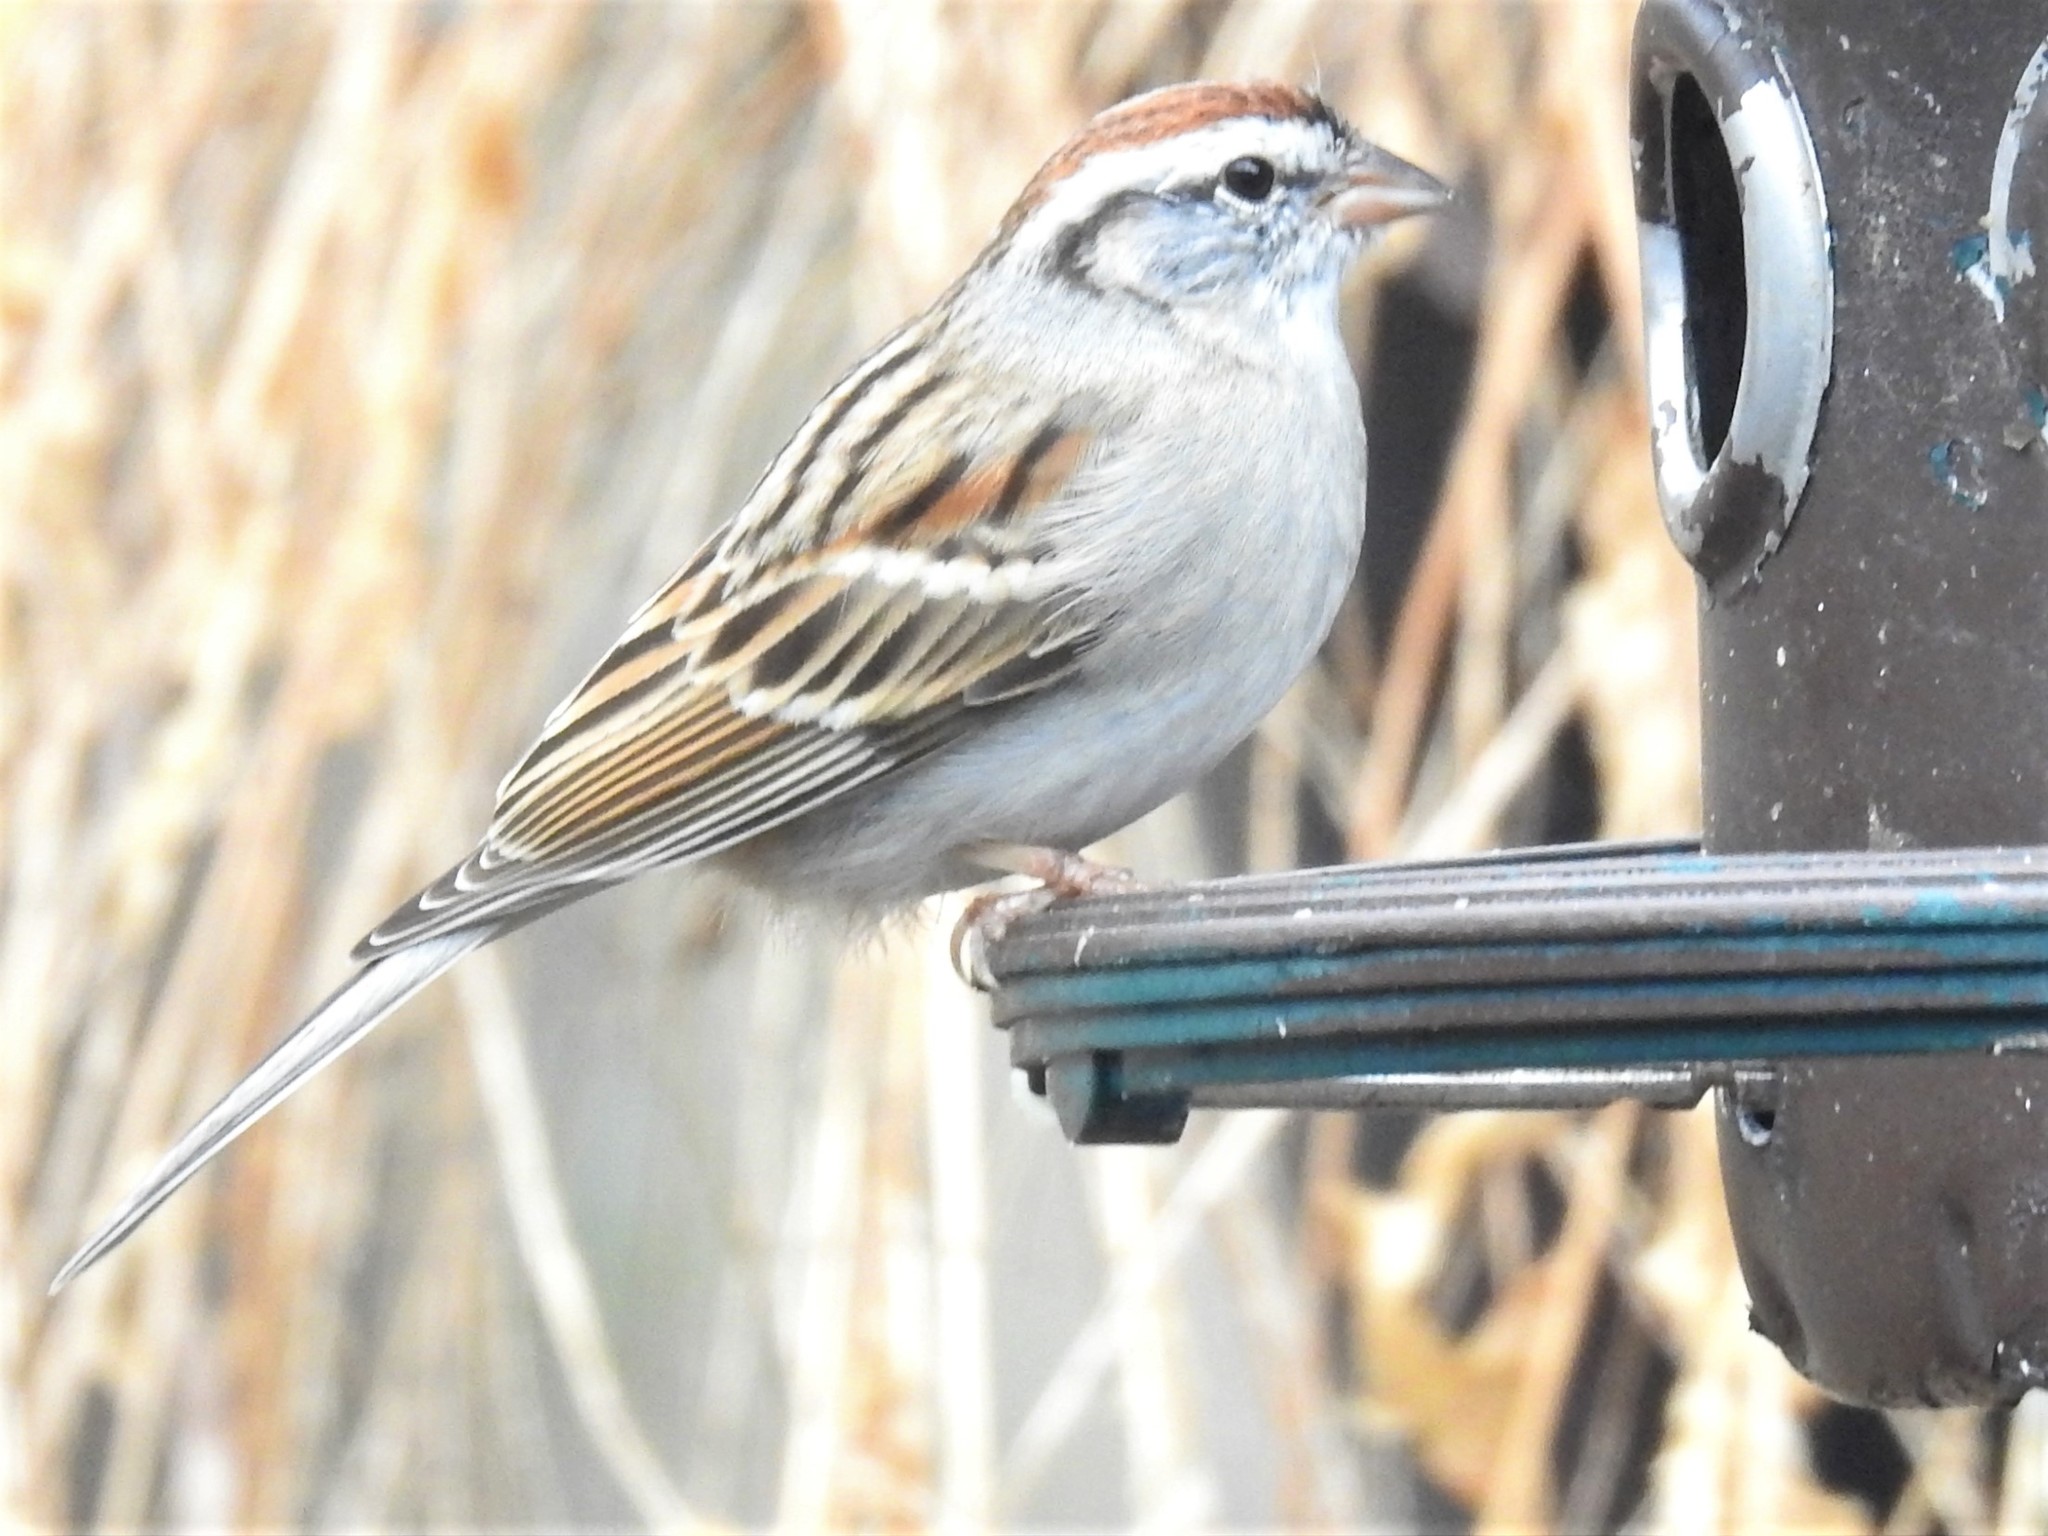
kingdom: Animalia
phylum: Chordata
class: Aves
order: Passeriformes
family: Passerellidae
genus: Spizella
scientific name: Spizella passerina
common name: Chipping sparrow
